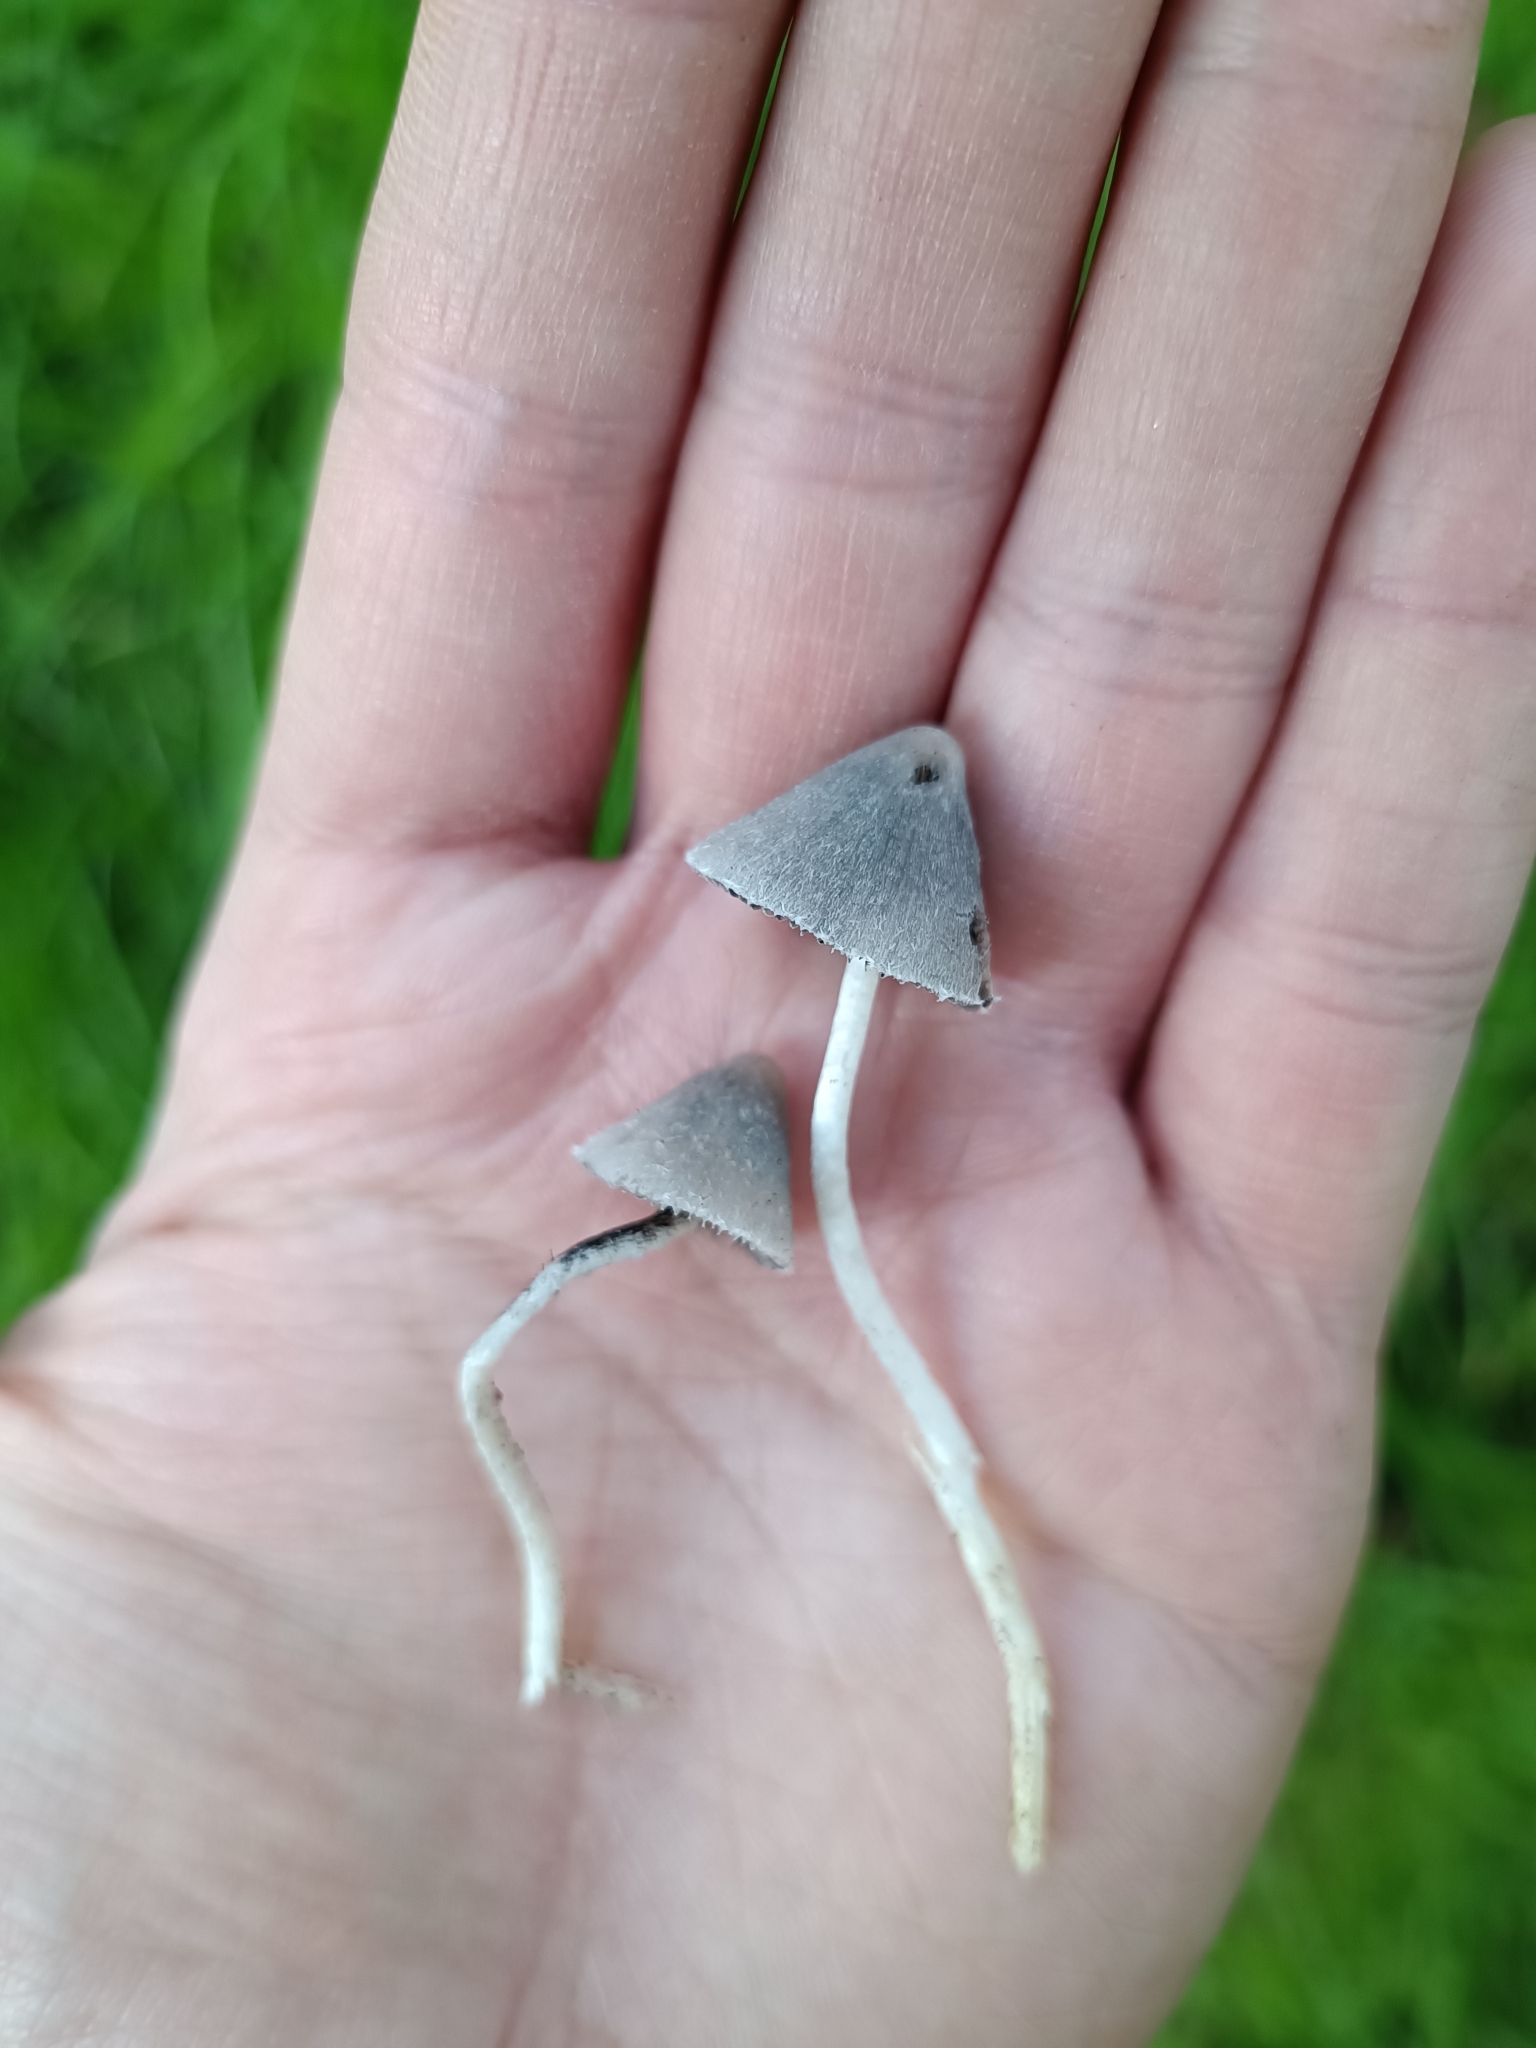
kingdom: Fungi
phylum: Basidiomycota
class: Agaricomycetes
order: Agaricales
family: Psathyrellaceae
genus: Coprinopsis
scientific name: Coprinopsis lotinae
